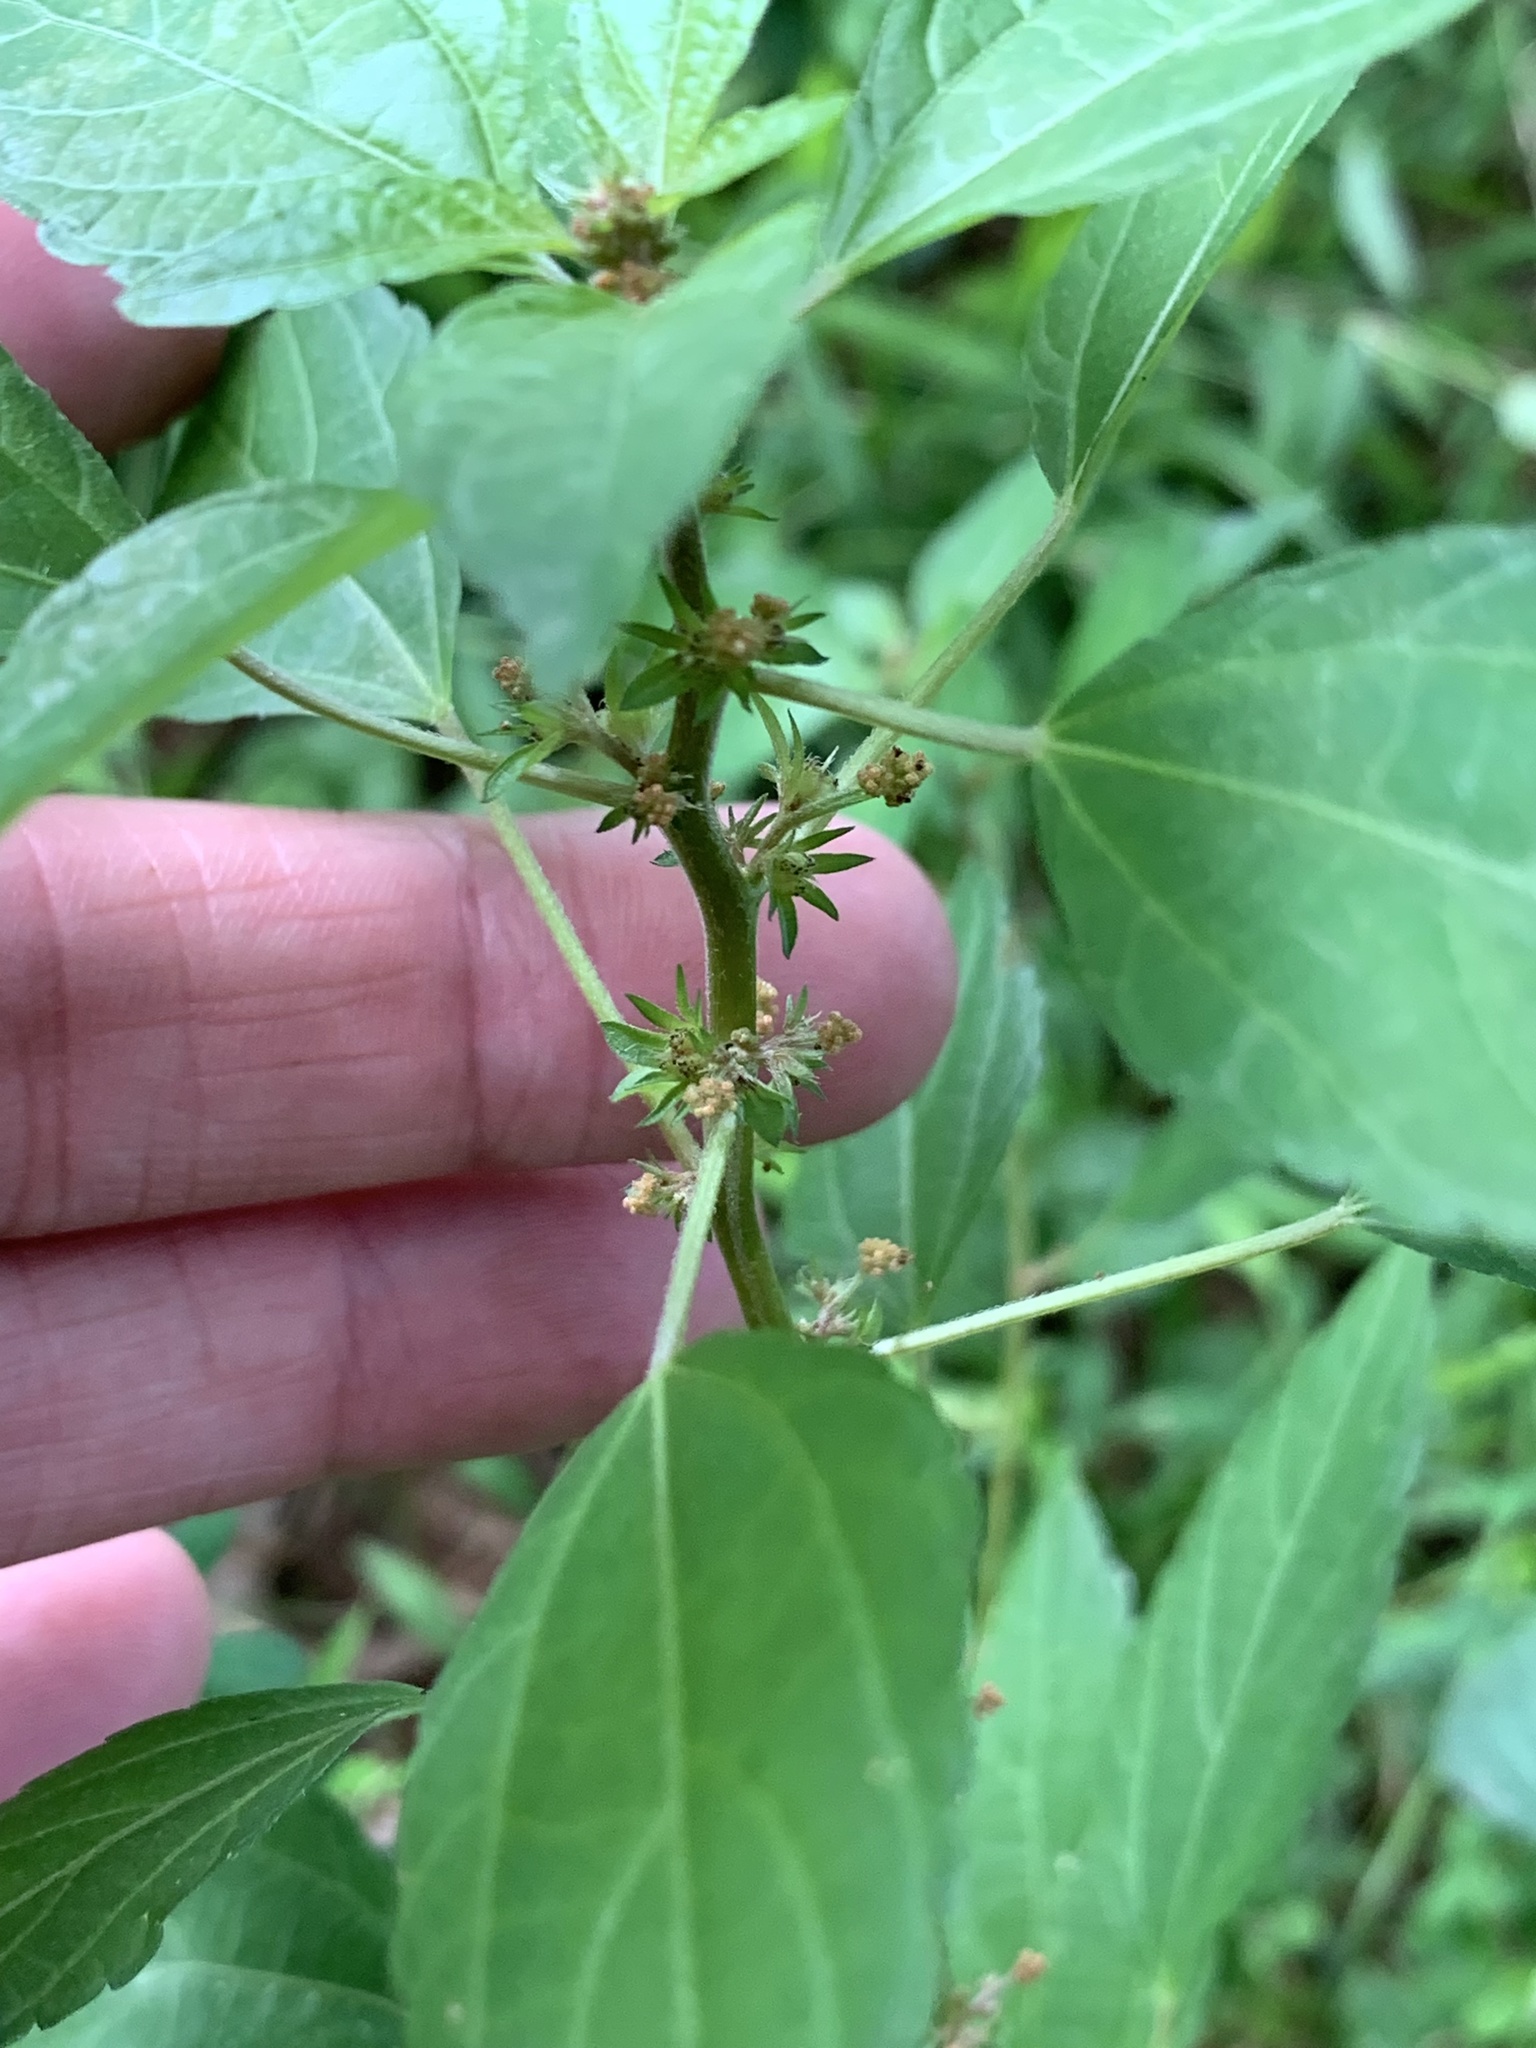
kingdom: Plantae
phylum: Tracheophyta
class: Magnoliopsida
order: Malpighiales
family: Euphorbiaceae
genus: Acalypha
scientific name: Acalypha rhomboidea
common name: Rhombic copperleaf
